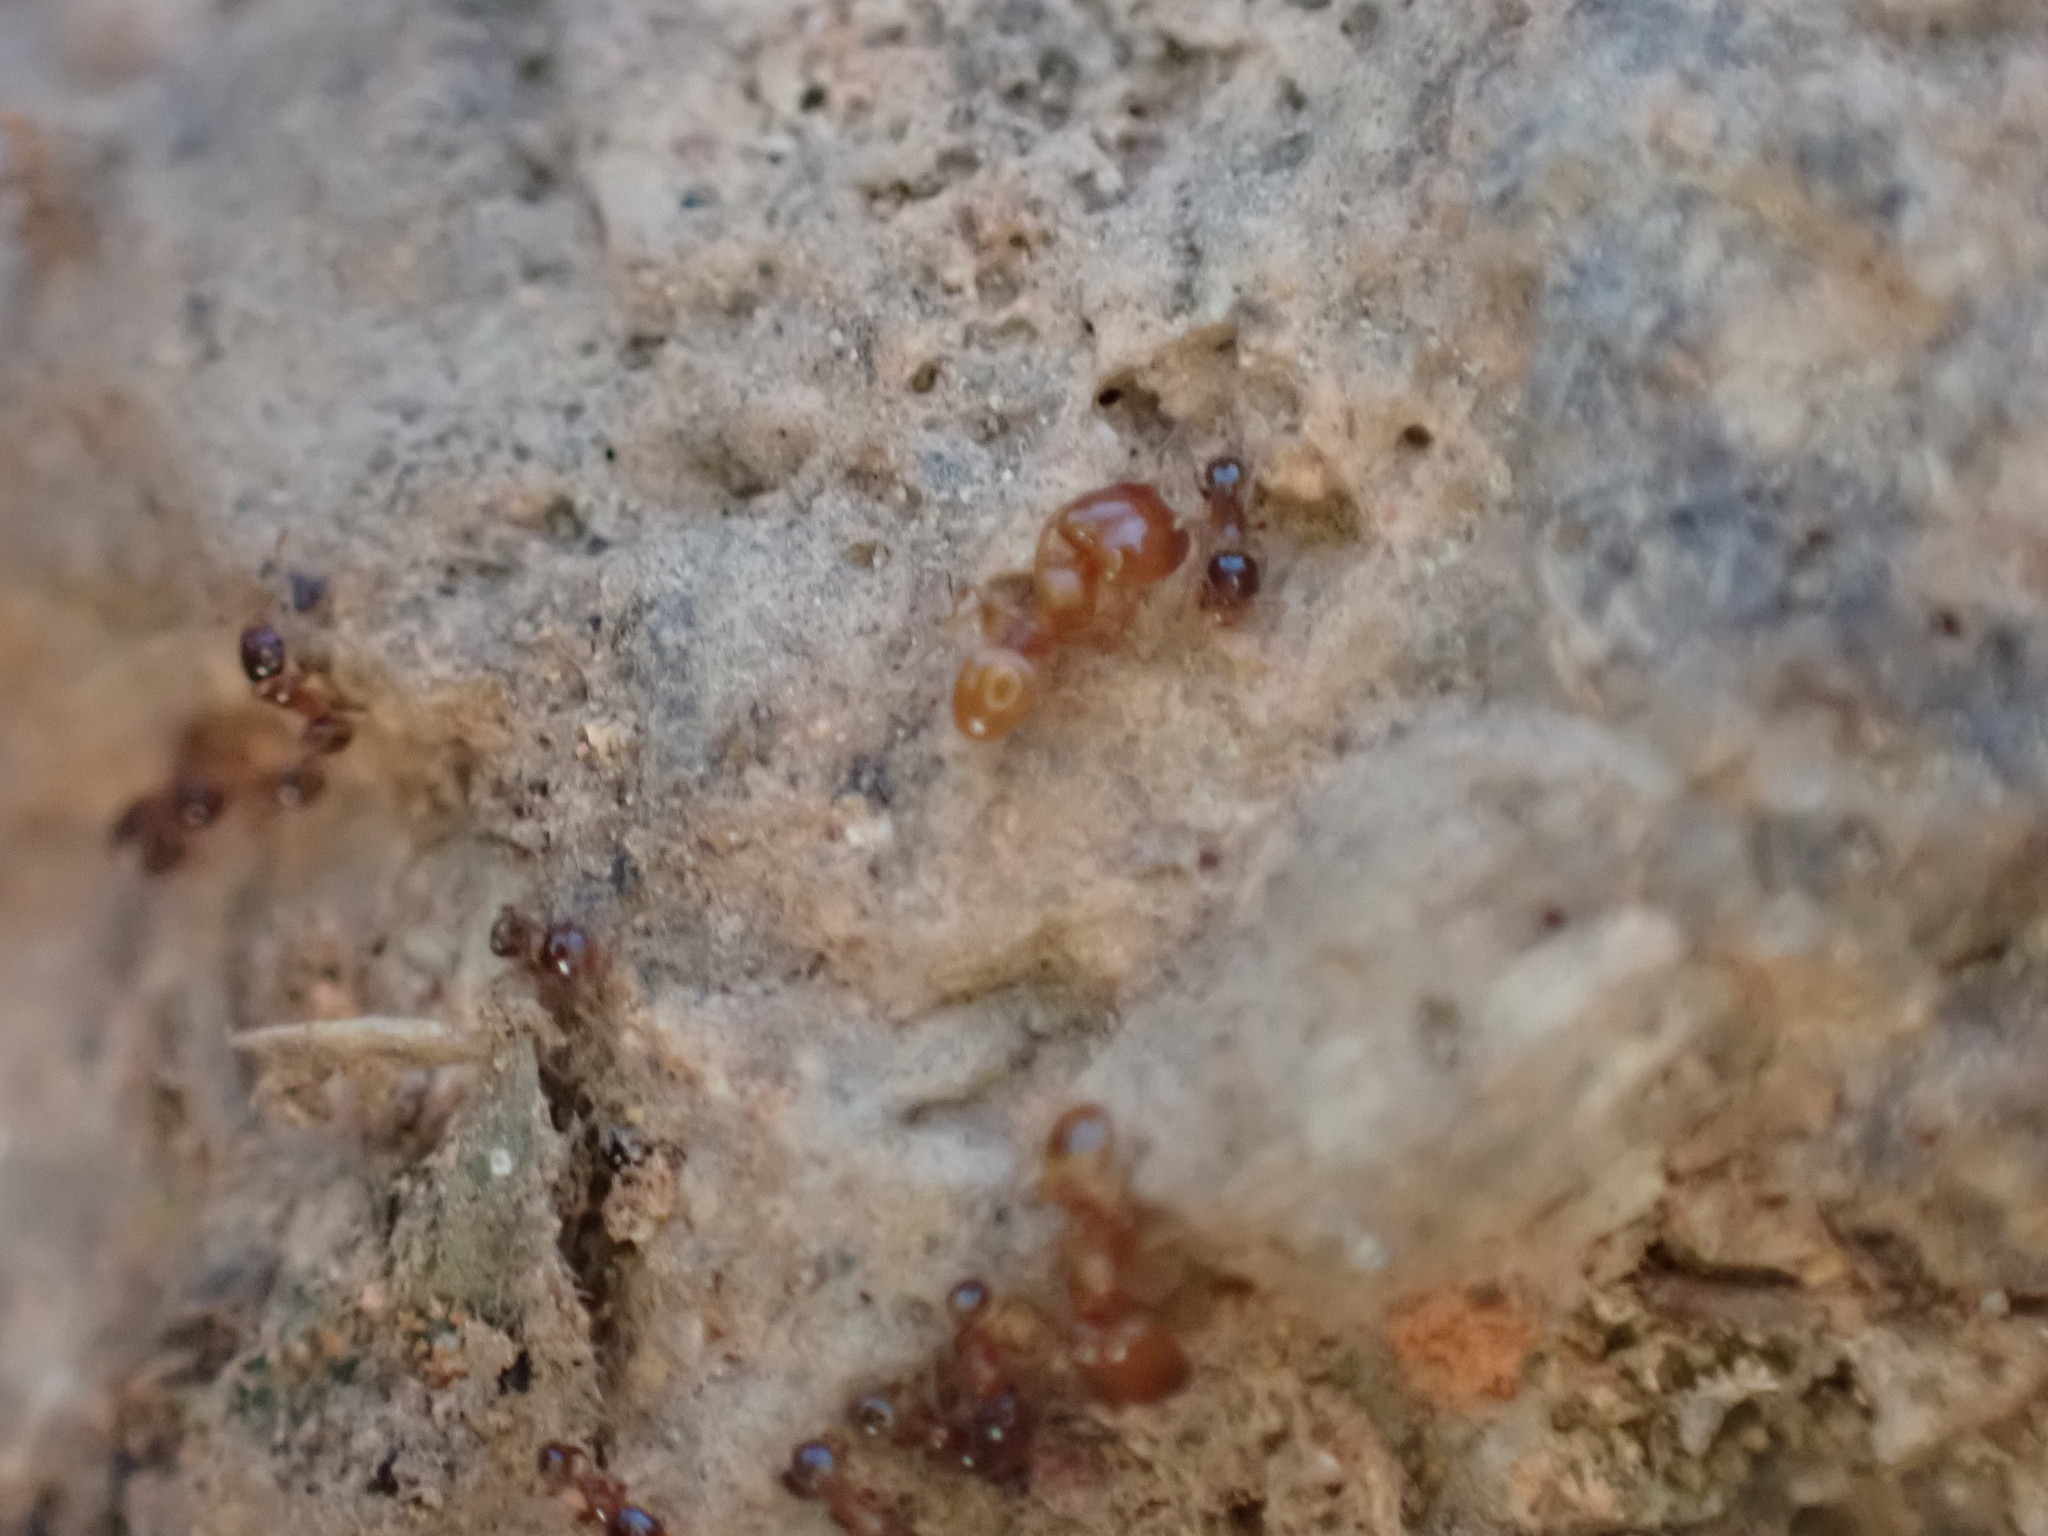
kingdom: Animalia
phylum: Arthropoda
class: Insecta
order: Hymenoptera
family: Formicidae
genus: Pheidole
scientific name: Pheidole bicarinata
